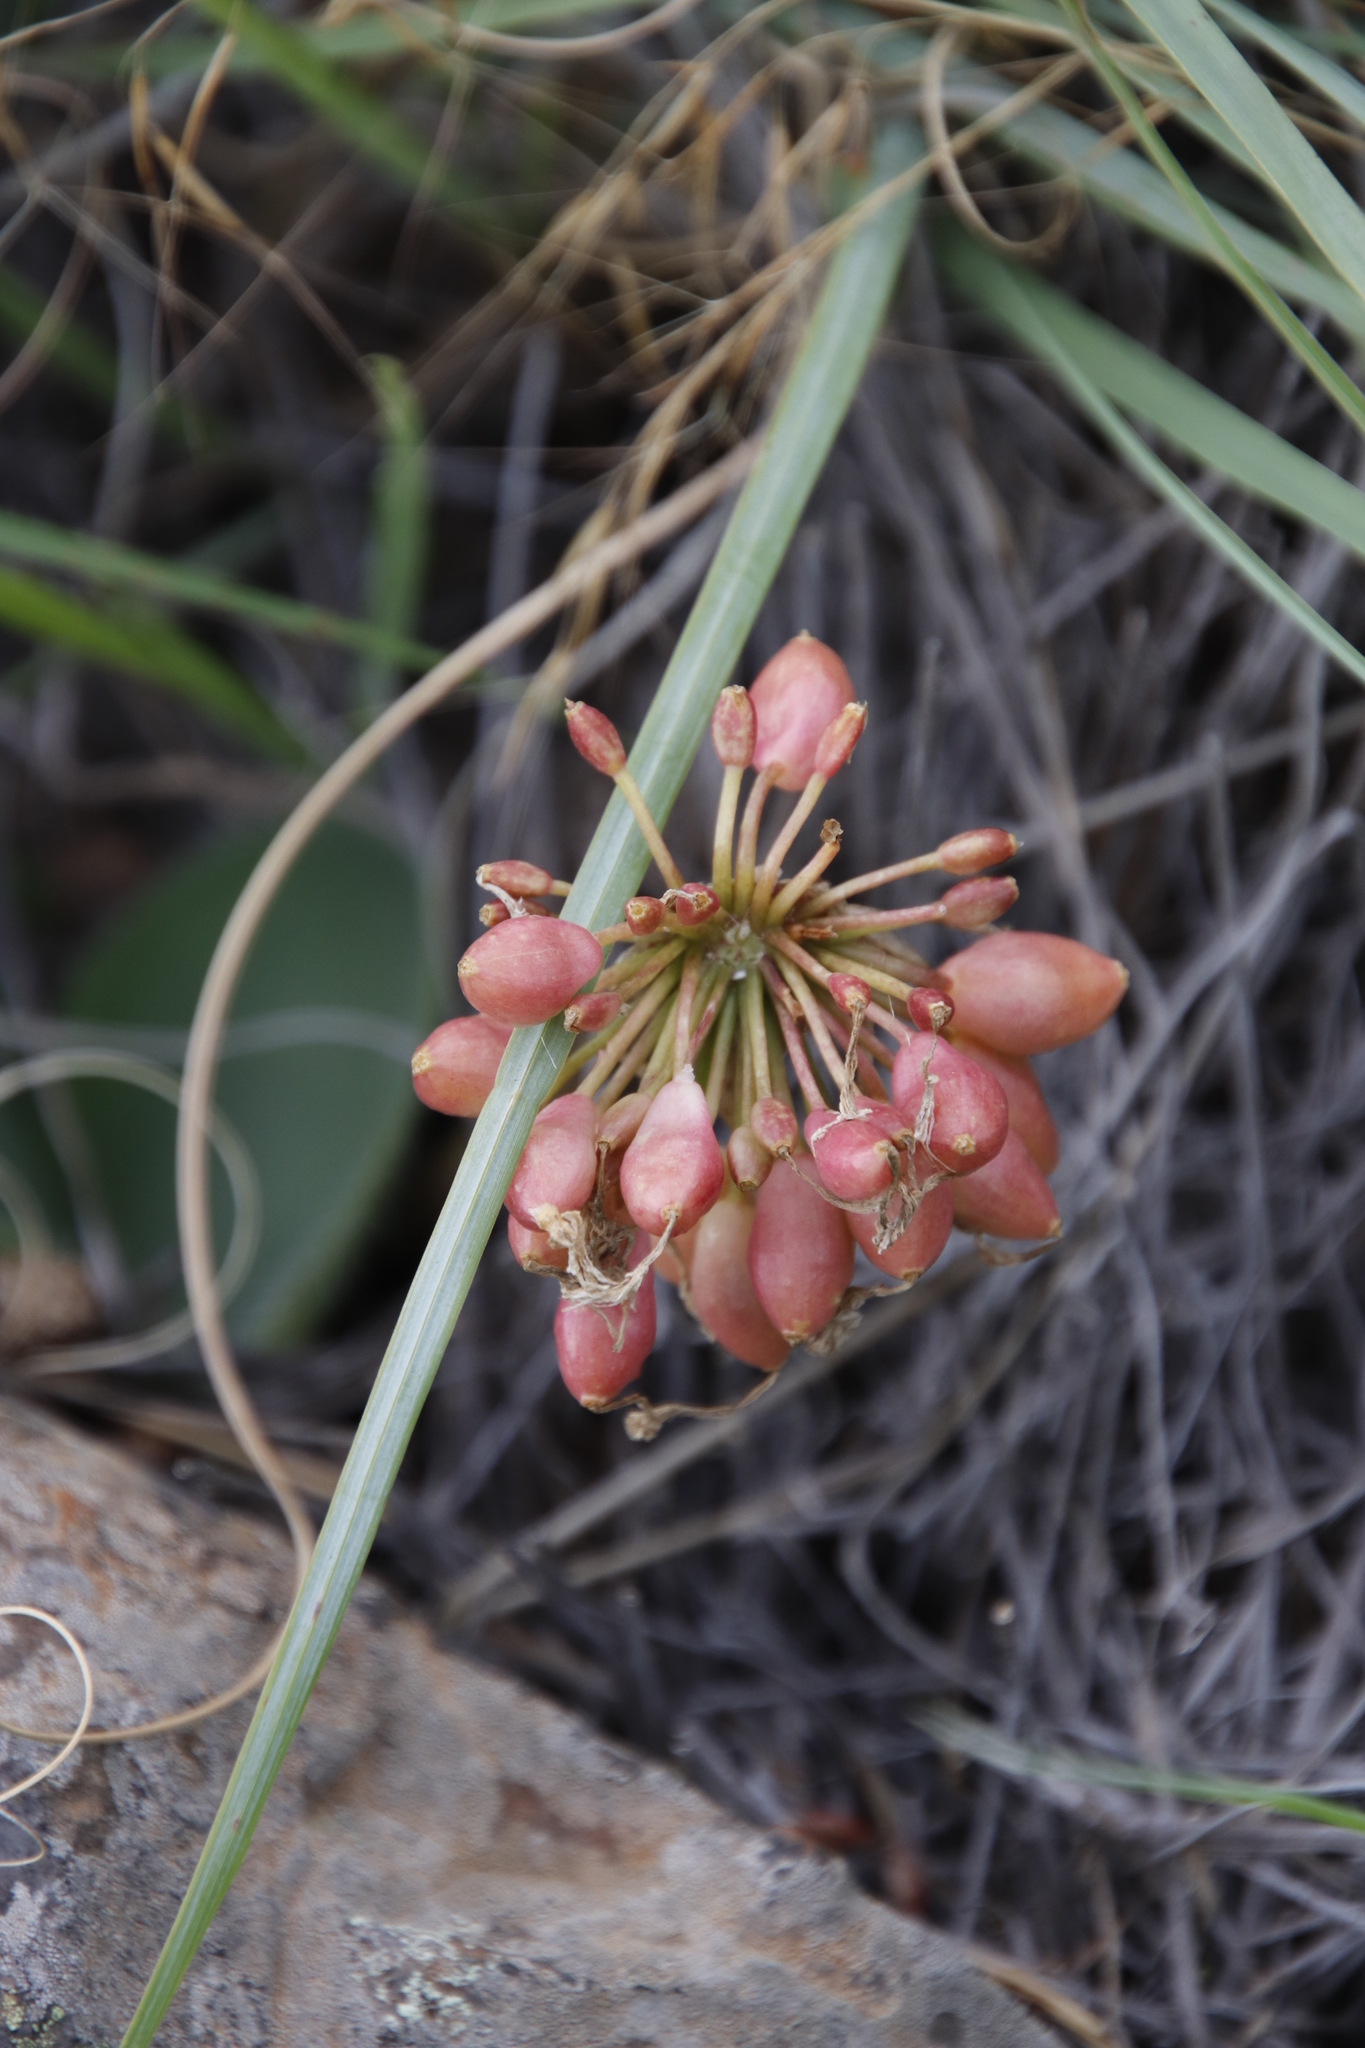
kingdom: Plantae
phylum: Tracheophyta
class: Liliopsida
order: Asparagales
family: Amaryllidaceae
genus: Haemanthus
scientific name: Haemanthus humilis
